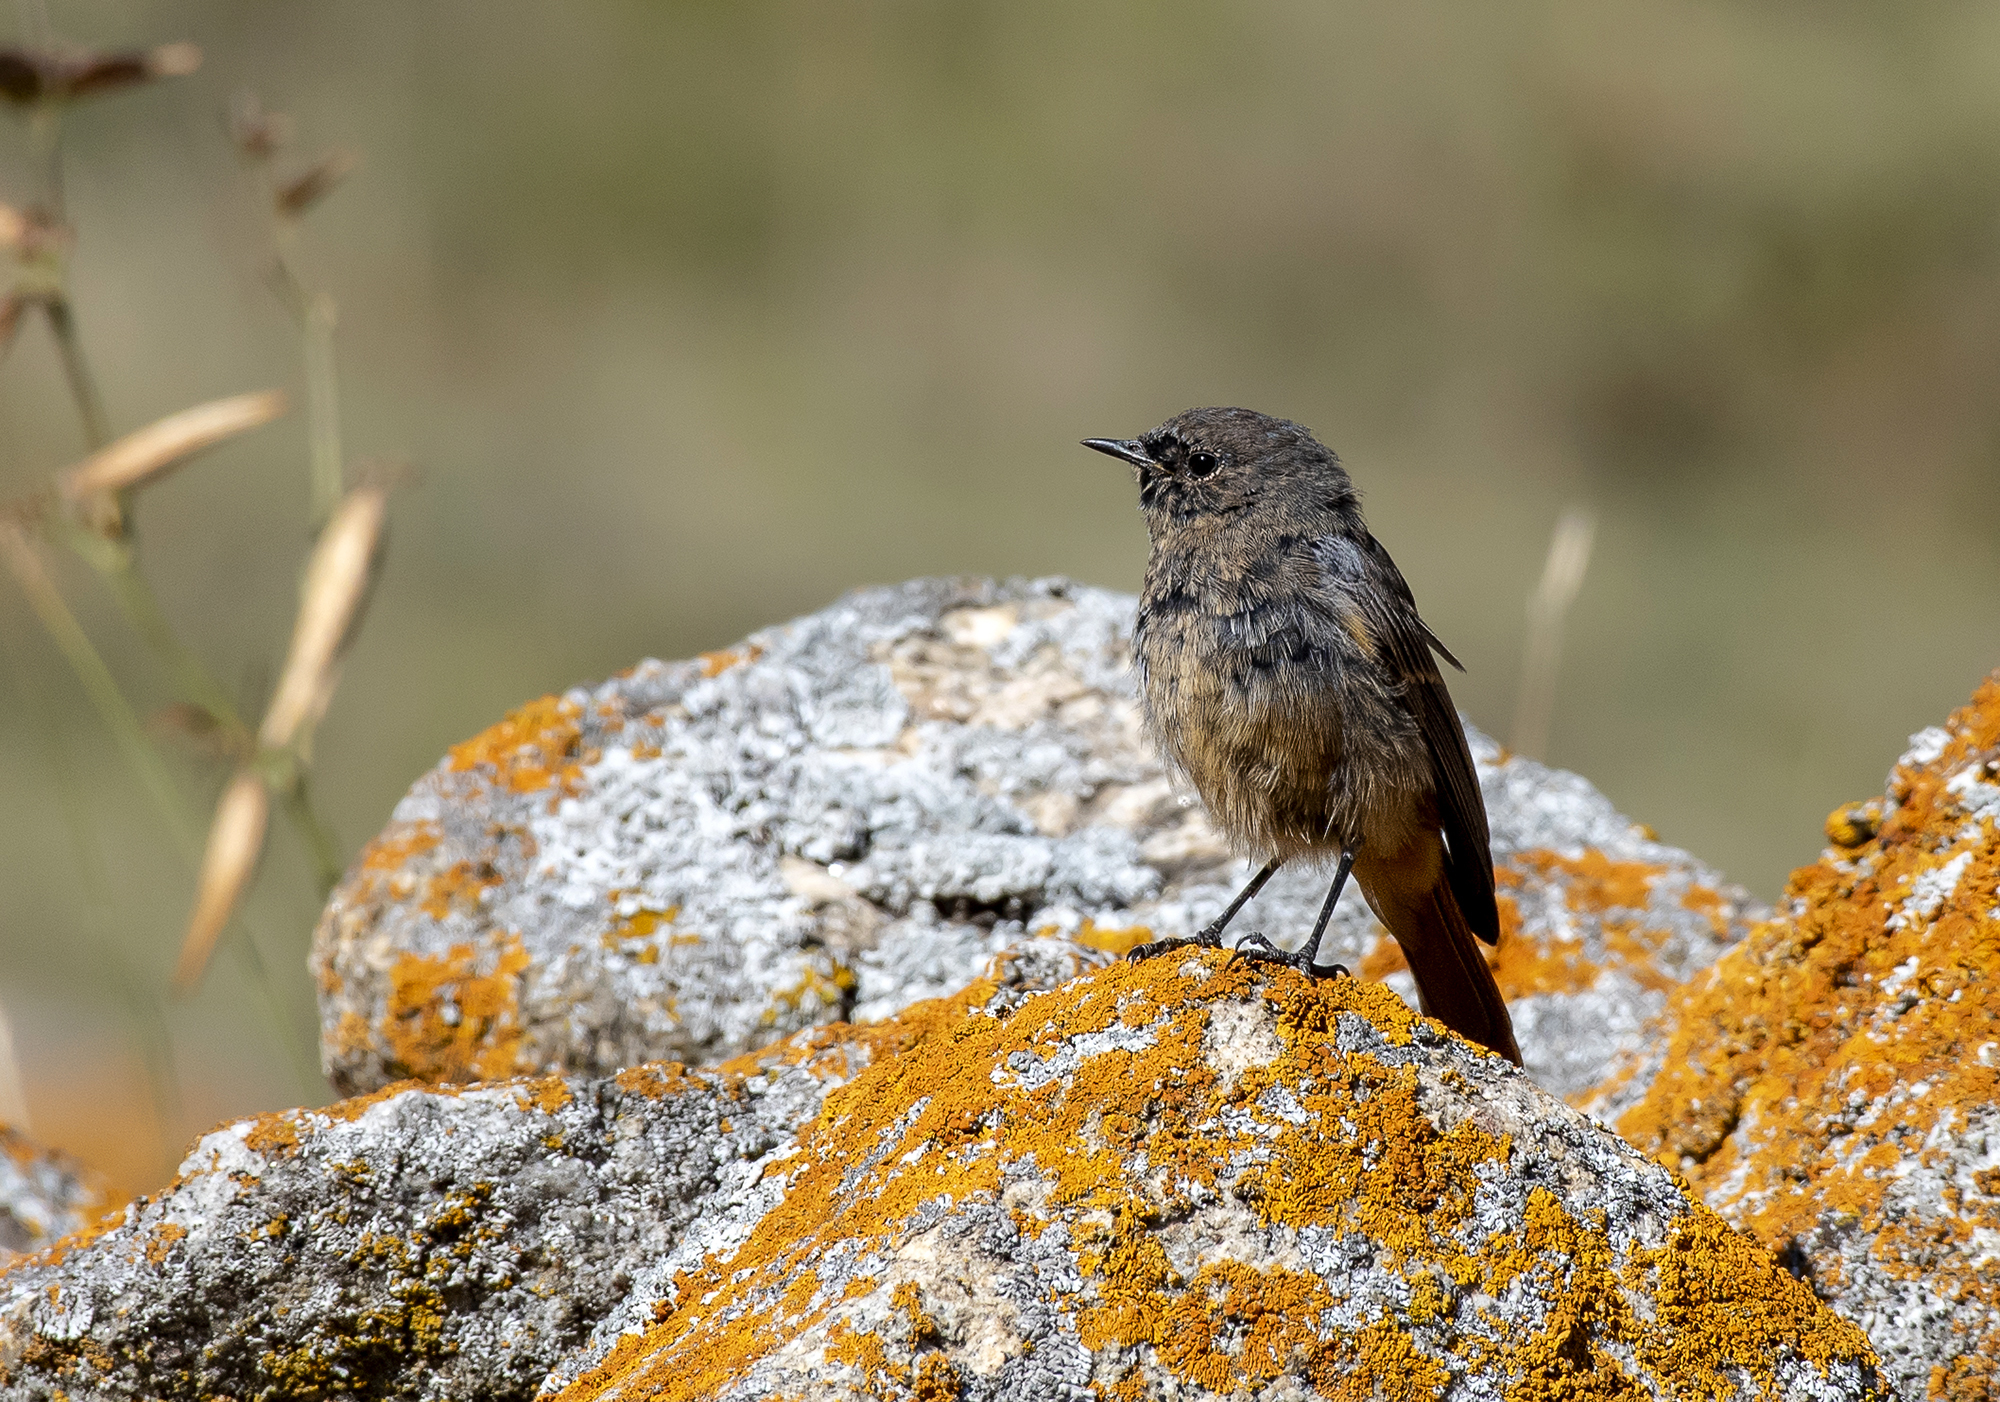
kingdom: Animalia
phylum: Chordata
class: Aves
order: Passeriformes
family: Muscicapidae
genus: Phoenicurus
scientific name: Phoenicurus ochruros
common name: Black redstart
